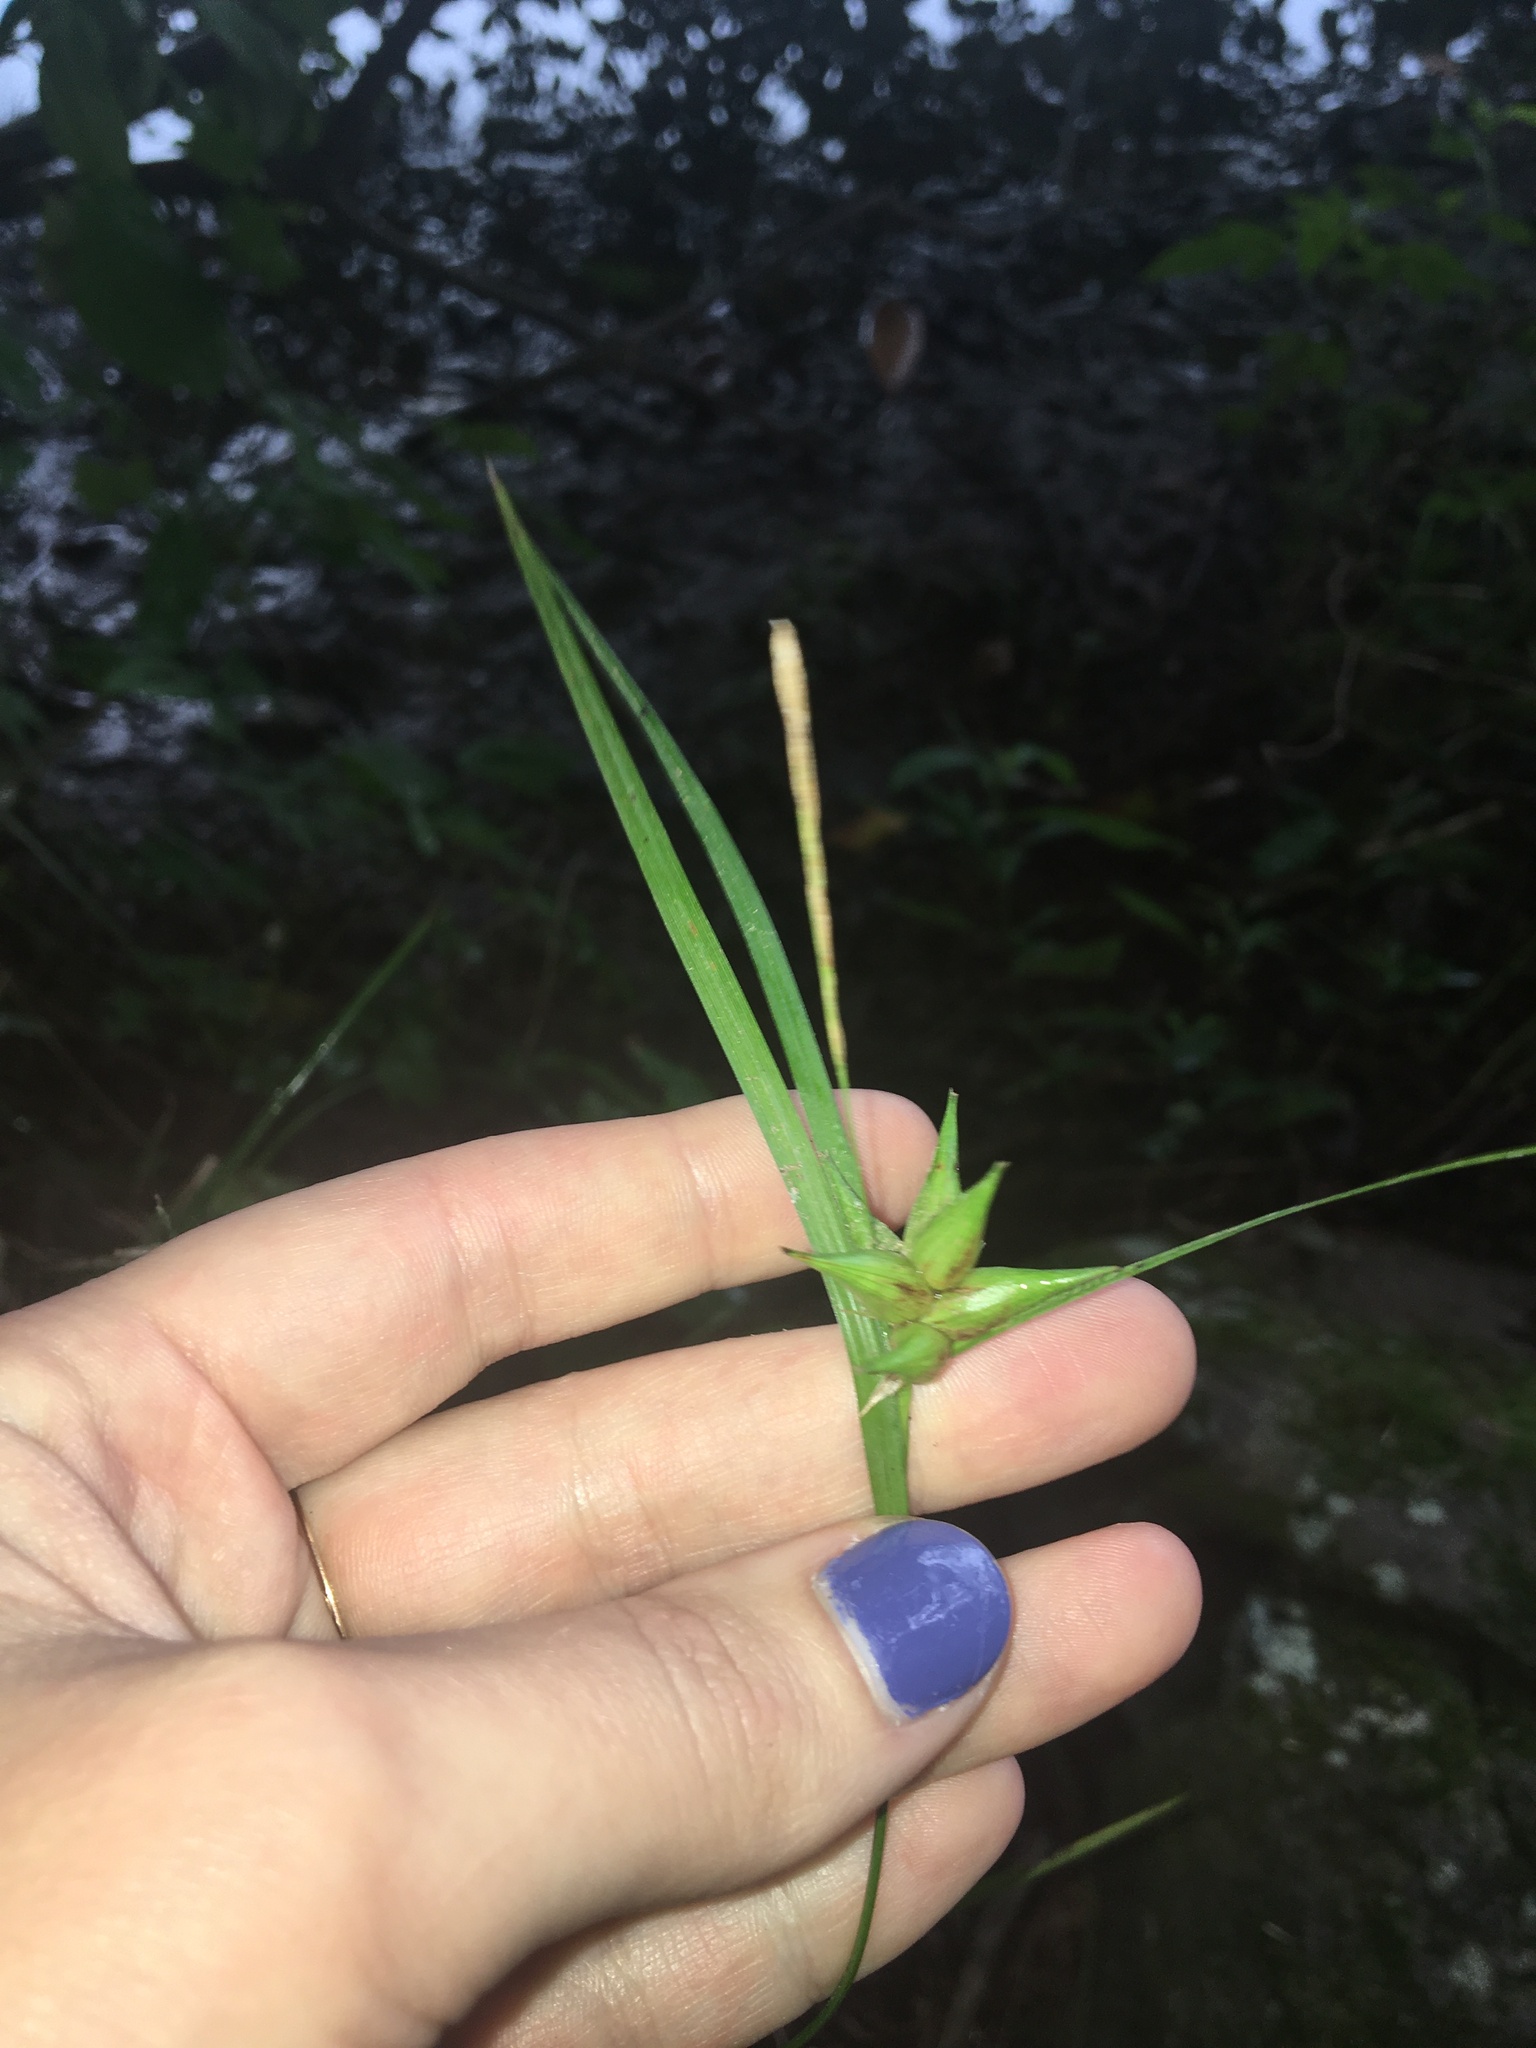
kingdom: Plantae
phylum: Tracheophyta
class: Liliopsida
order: Poales
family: Cyperaceae
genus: Carex
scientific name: Carex intumescens
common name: Greater bladder sedge
